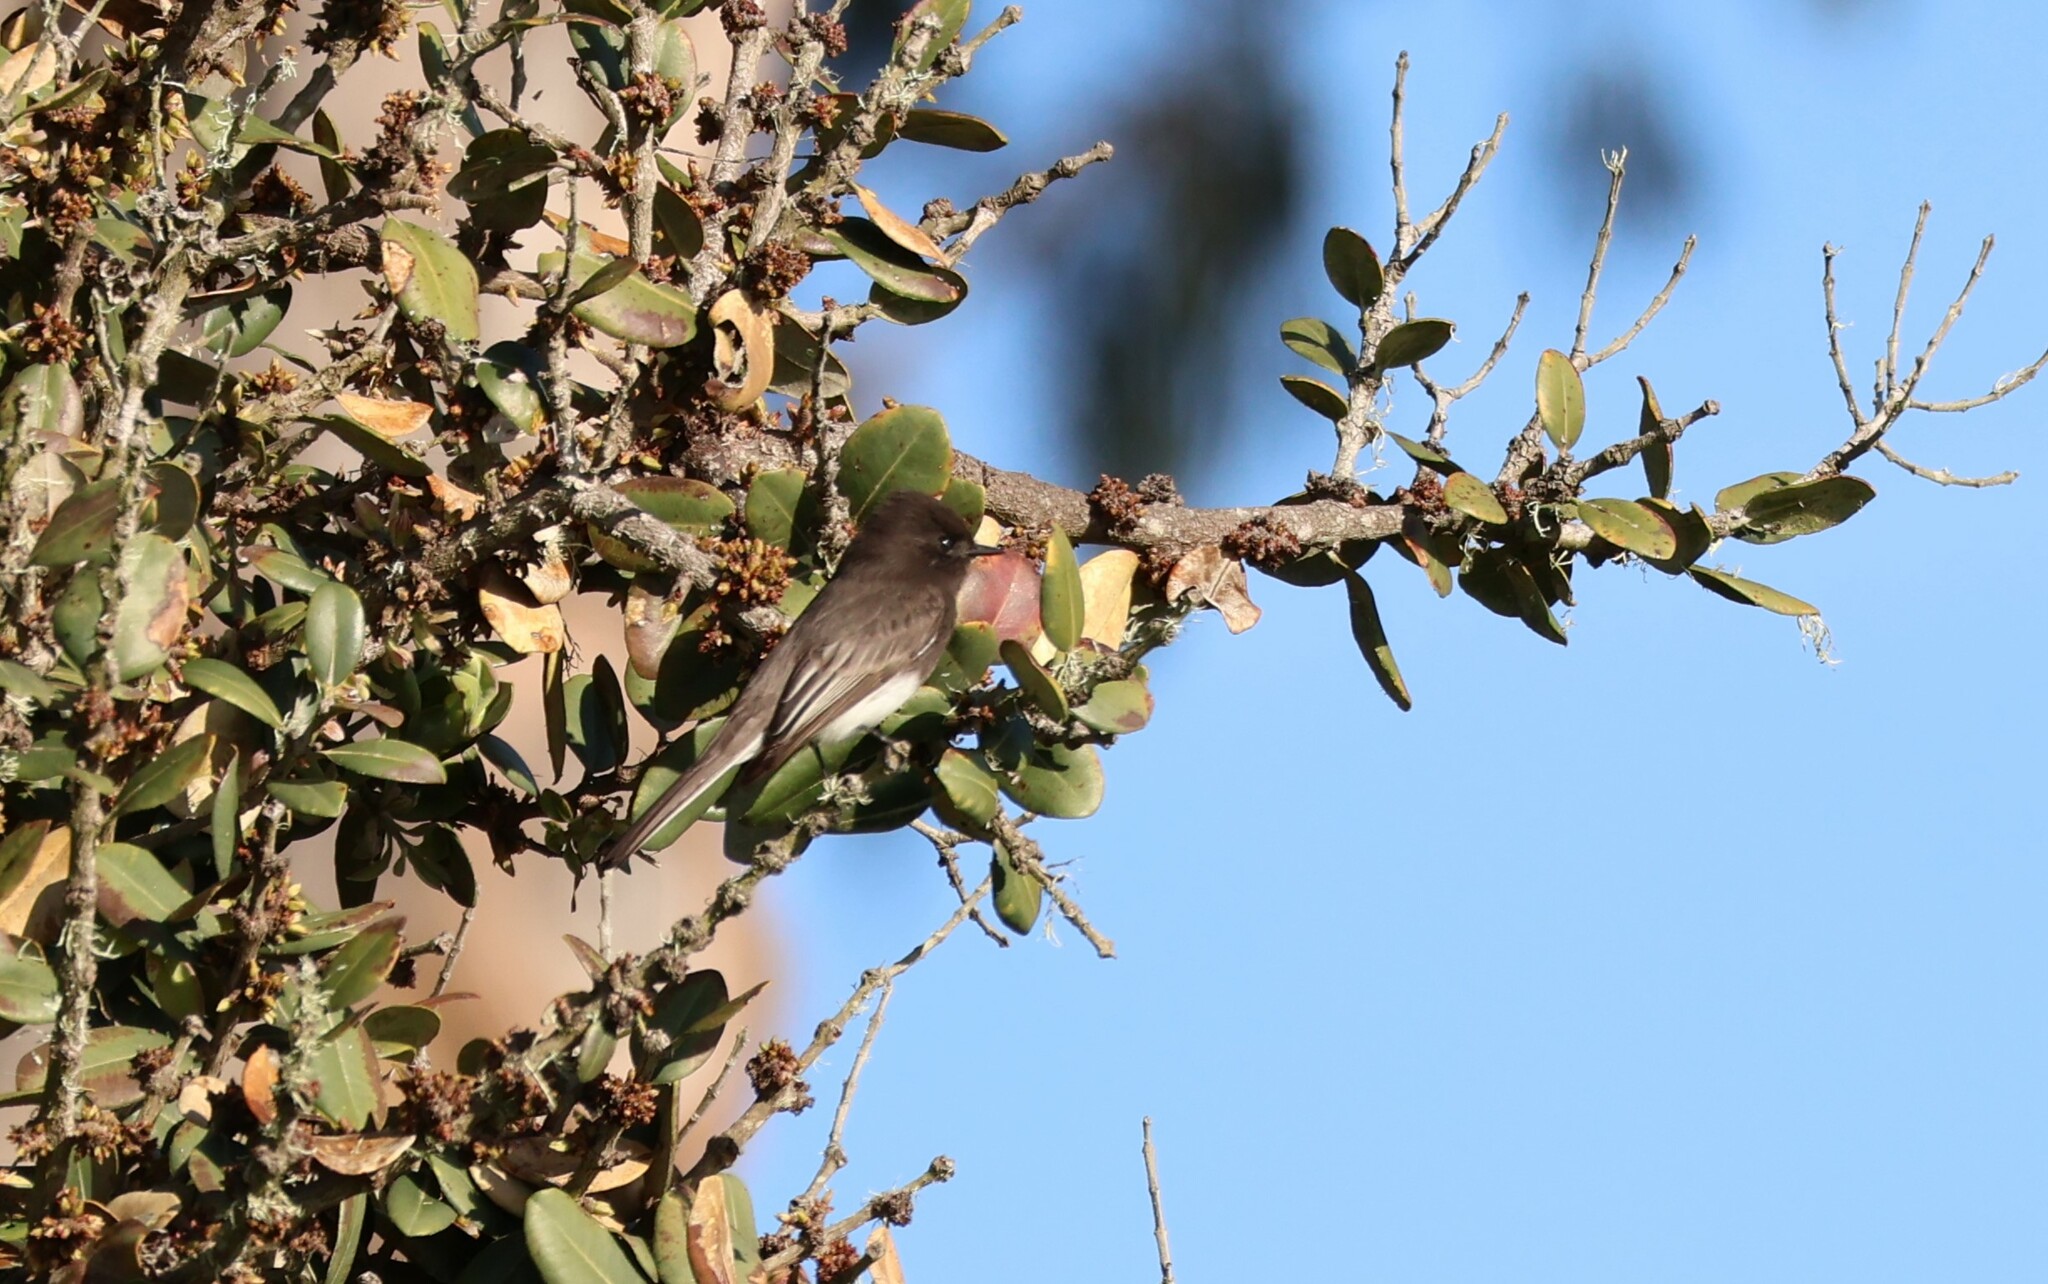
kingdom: Animalia
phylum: Chordata
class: Aves
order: Passeriformes
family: Tyrannidae
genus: Sayornis
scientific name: Sayornis nigricans
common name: Black phoebe
